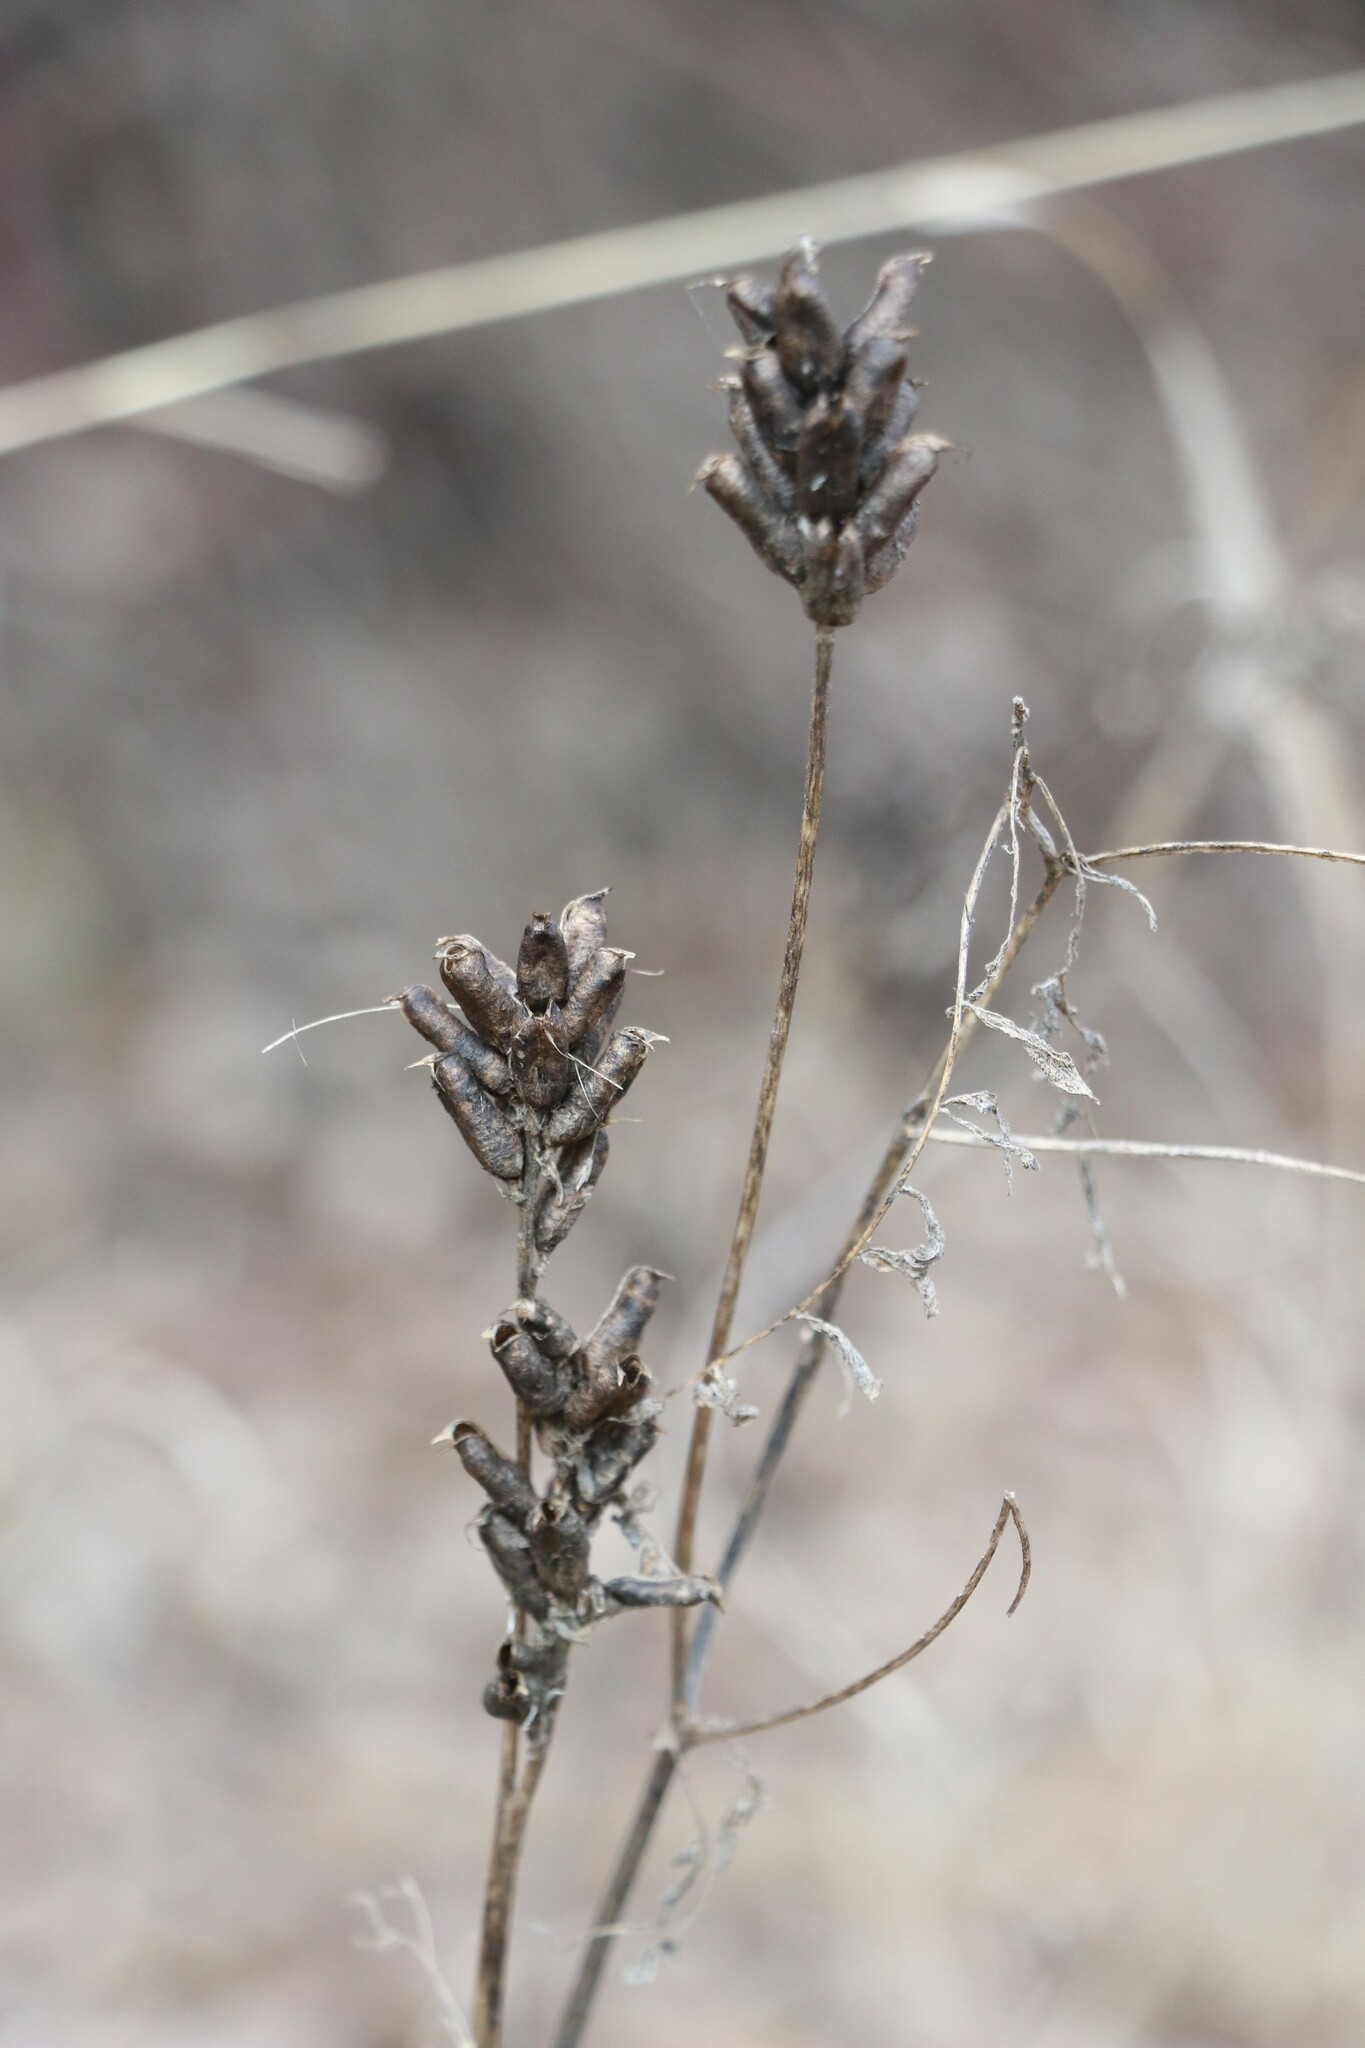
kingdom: Plantae
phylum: Tracheophyta
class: Magnoliopsida
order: Fabales
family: Fabaceae
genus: Astragalus
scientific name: Astragalus uliginosus
